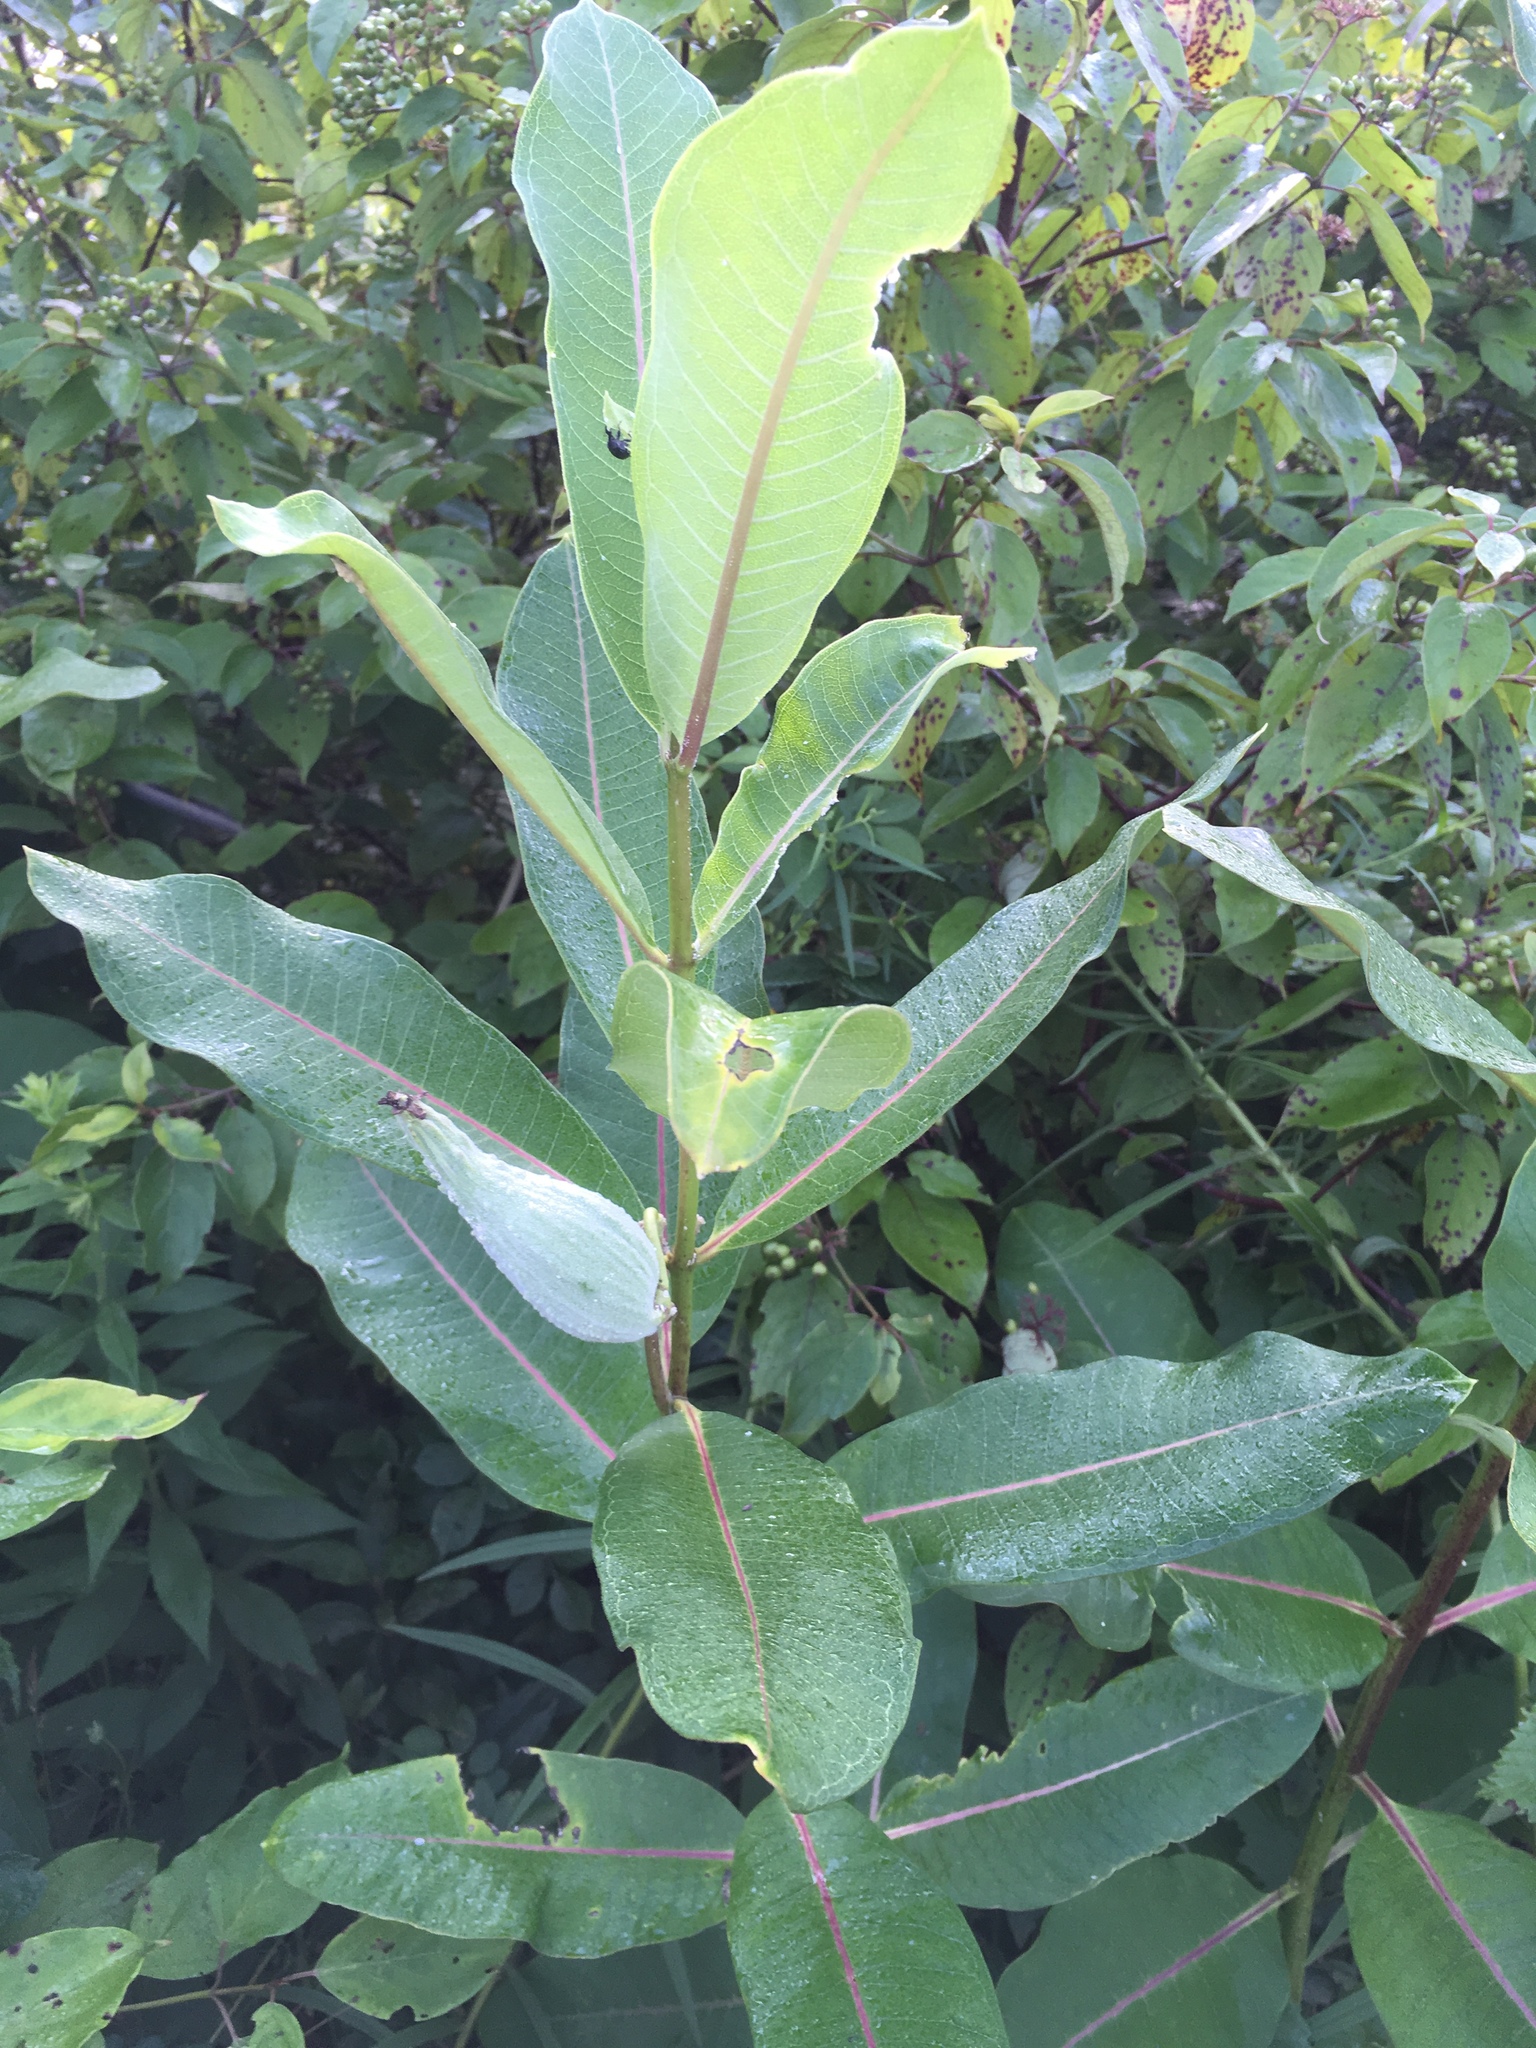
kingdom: Plantae
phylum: Tracheophyta
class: Magnoliopsida
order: Gentianales
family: Apocynaceae
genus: Asclepias
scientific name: Asclepias syriaca
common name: Common milkweed
